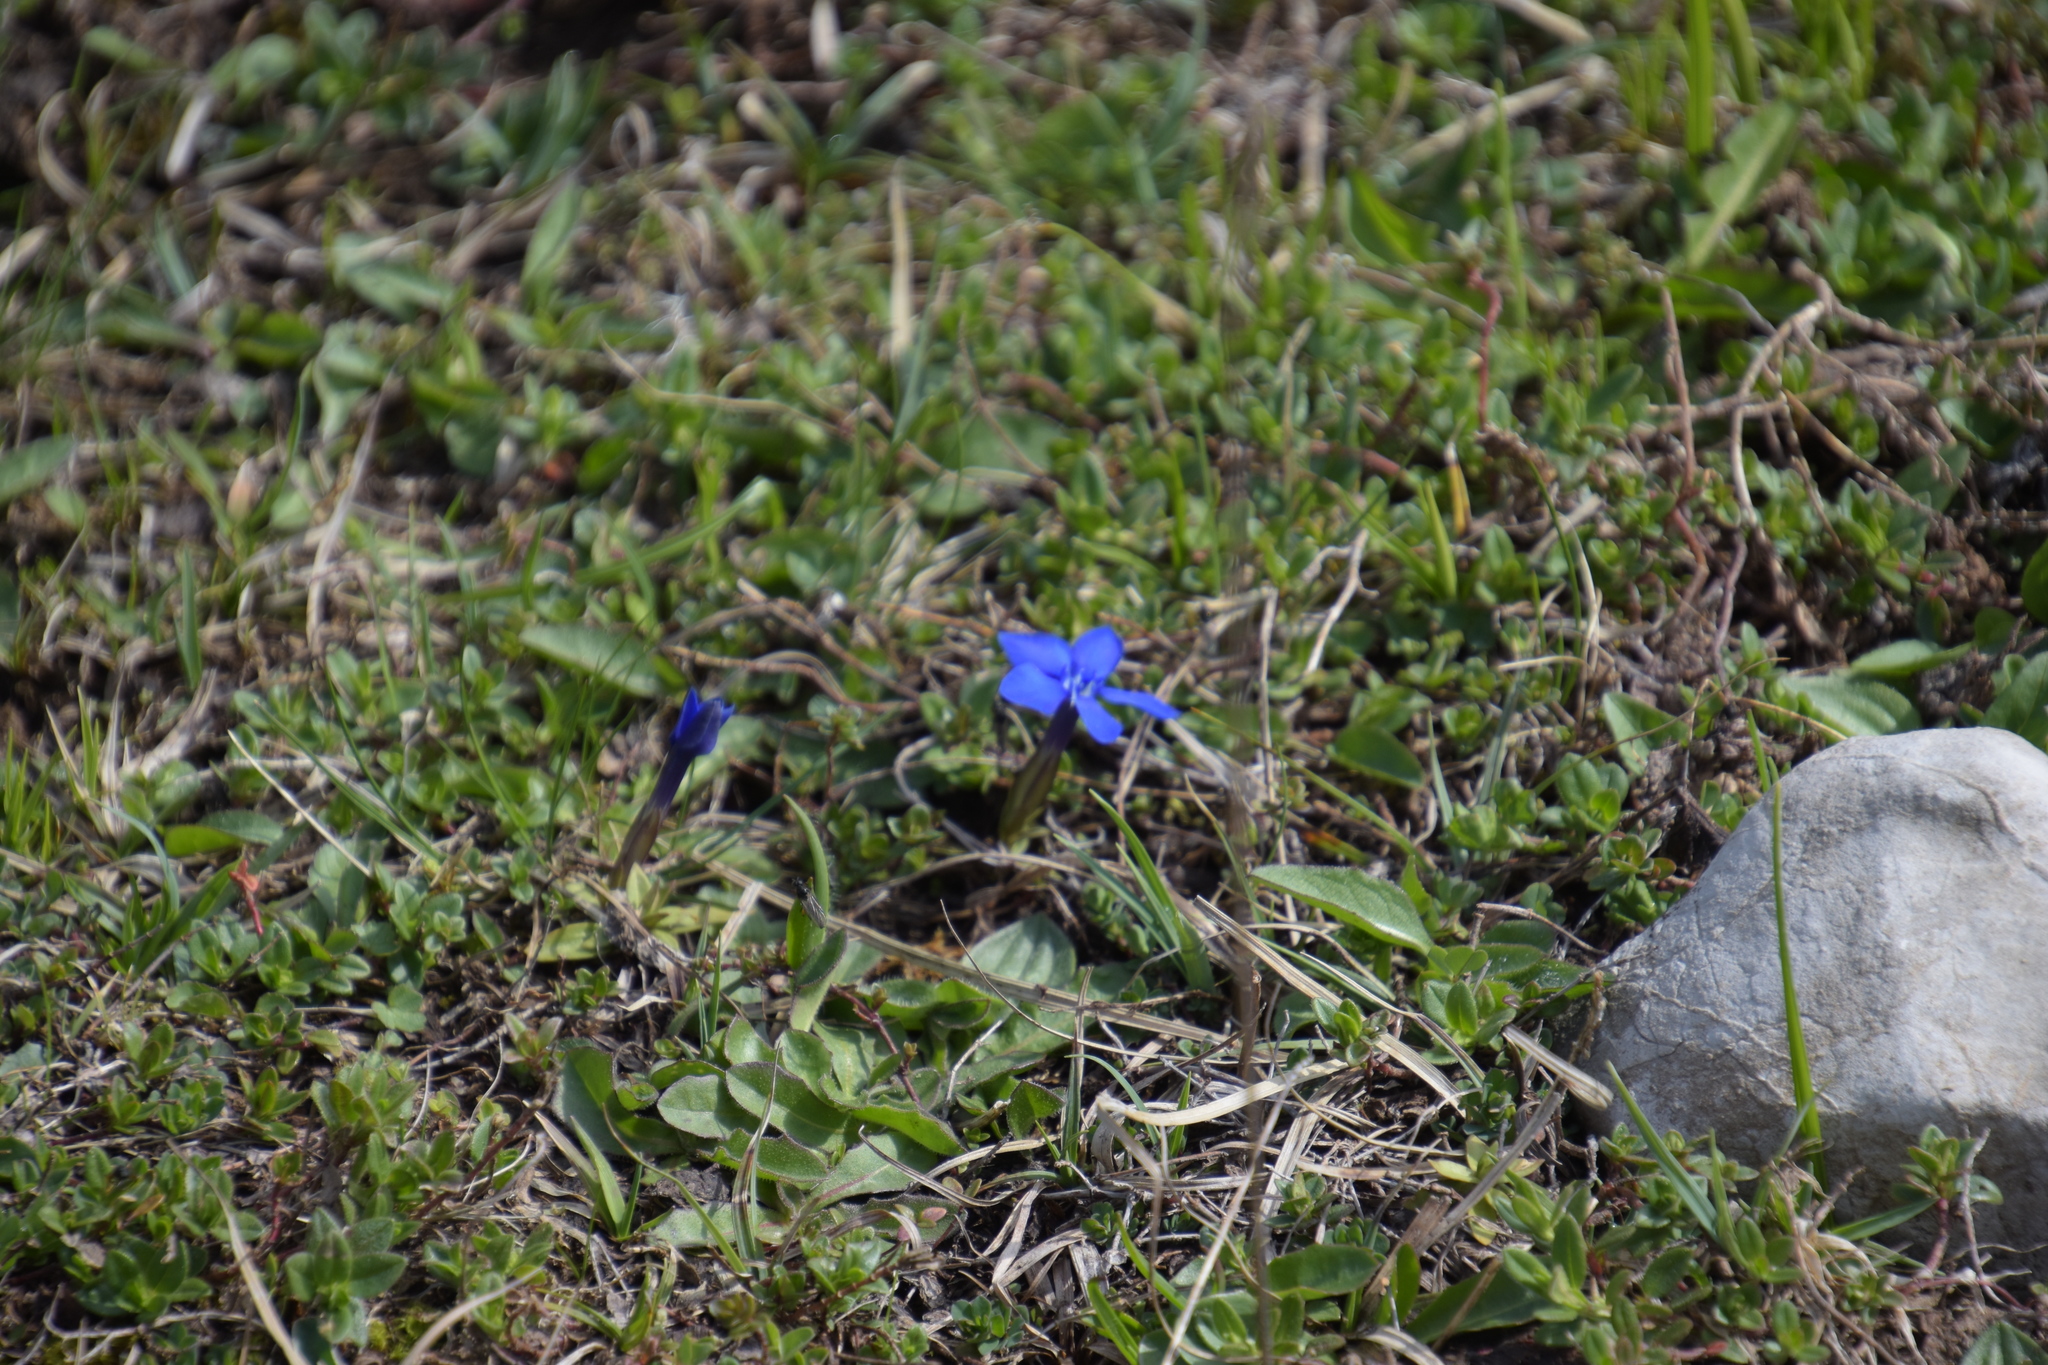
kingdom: Plantae
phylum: Tracheophyta
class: Magnoliopsida
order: Gentianales
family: Gentianaceae
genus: Gentiana
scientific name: Gentiana verna
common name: Spring gentian
